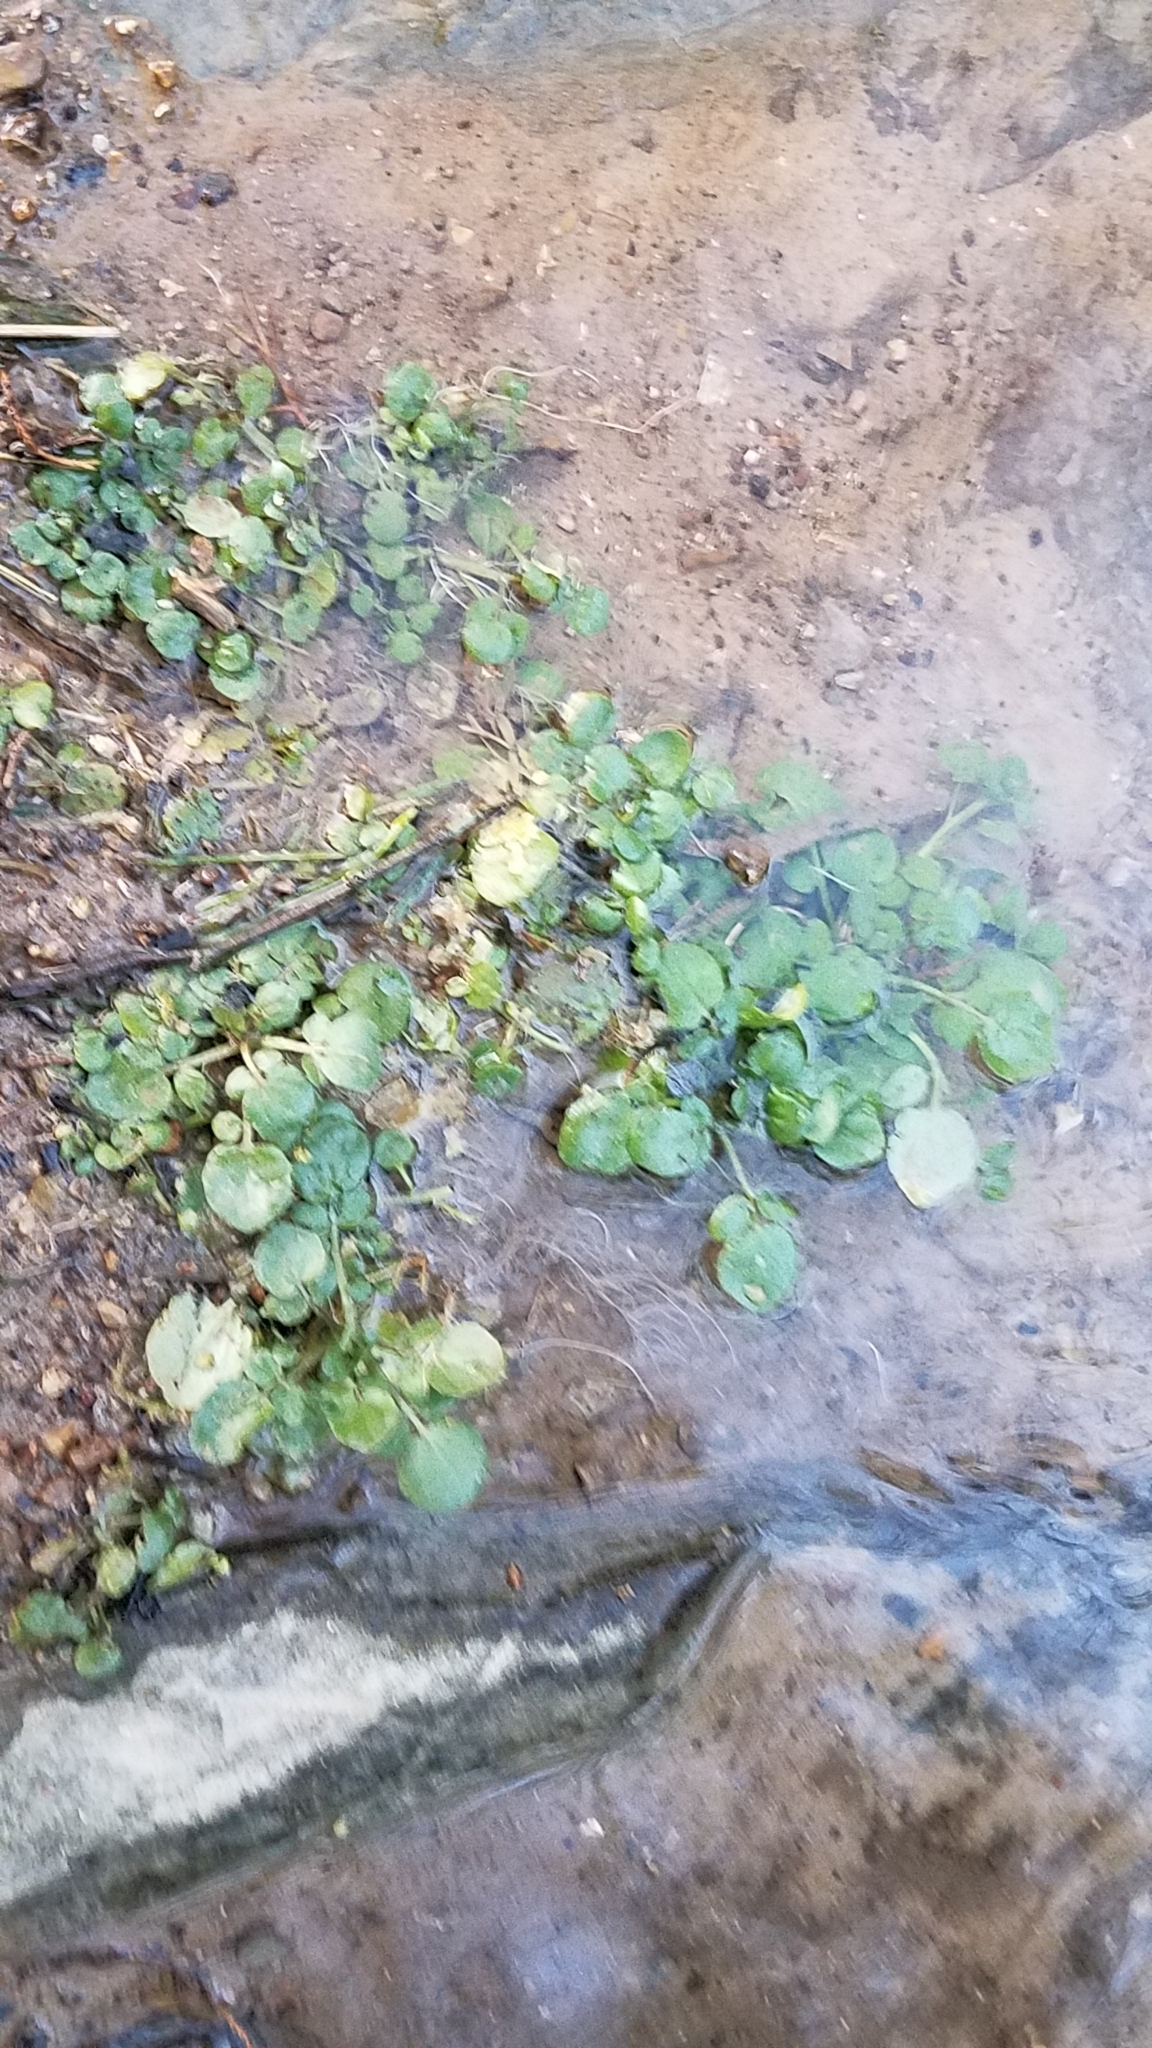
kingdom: Plantae
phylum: Tracheophyta
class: Magnoliopsida
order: Brassicales
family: Brassicaceae
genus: Nasturtium
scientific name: Nasturtium officinale
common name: Watercress
